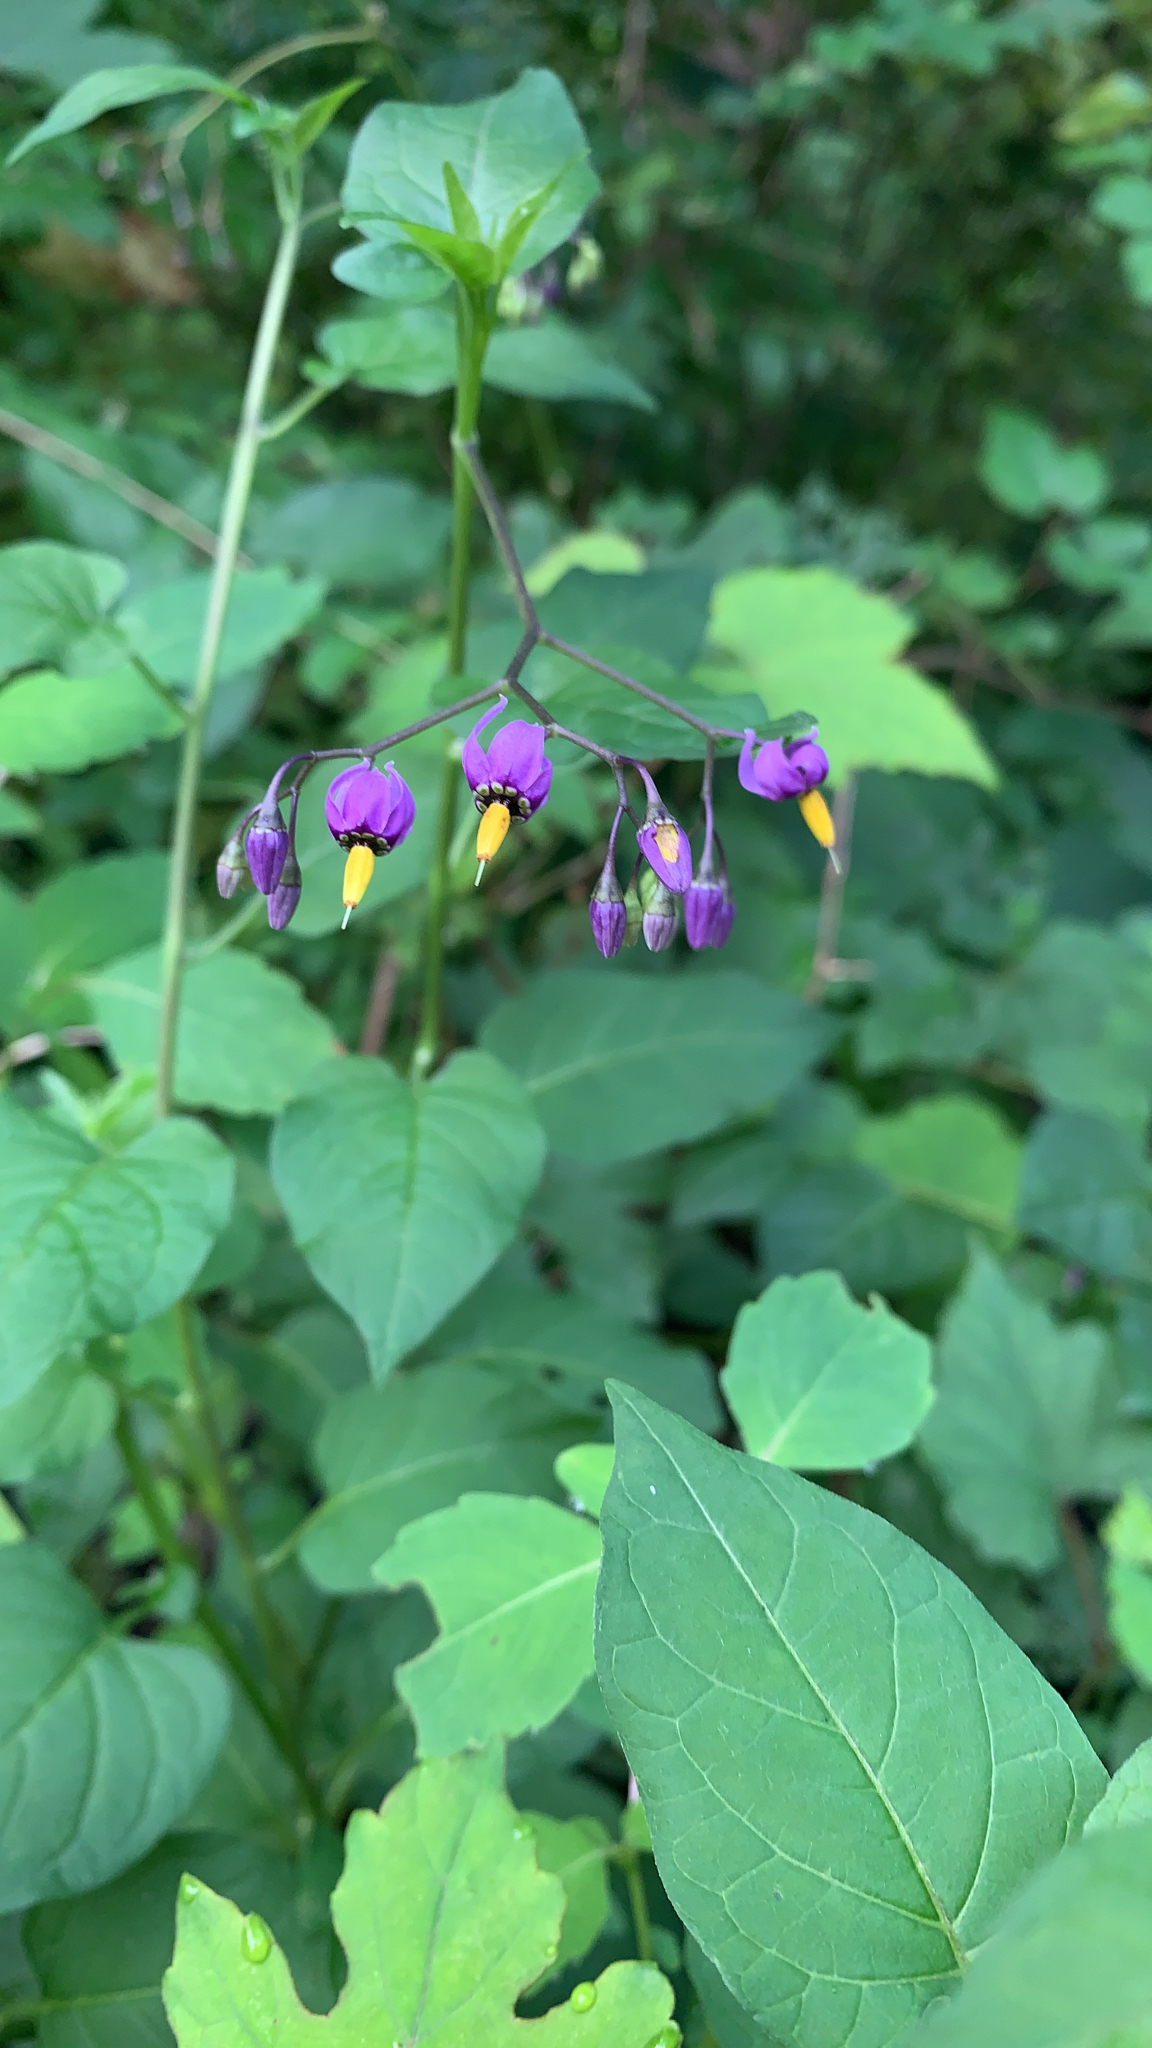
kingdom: Plantae
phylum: Tracheophyta
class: Magnoliopsida
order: Solanales
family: Solanaceae
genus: Solanum
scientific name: Solanum dulcamara
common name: Climbing nightshade
